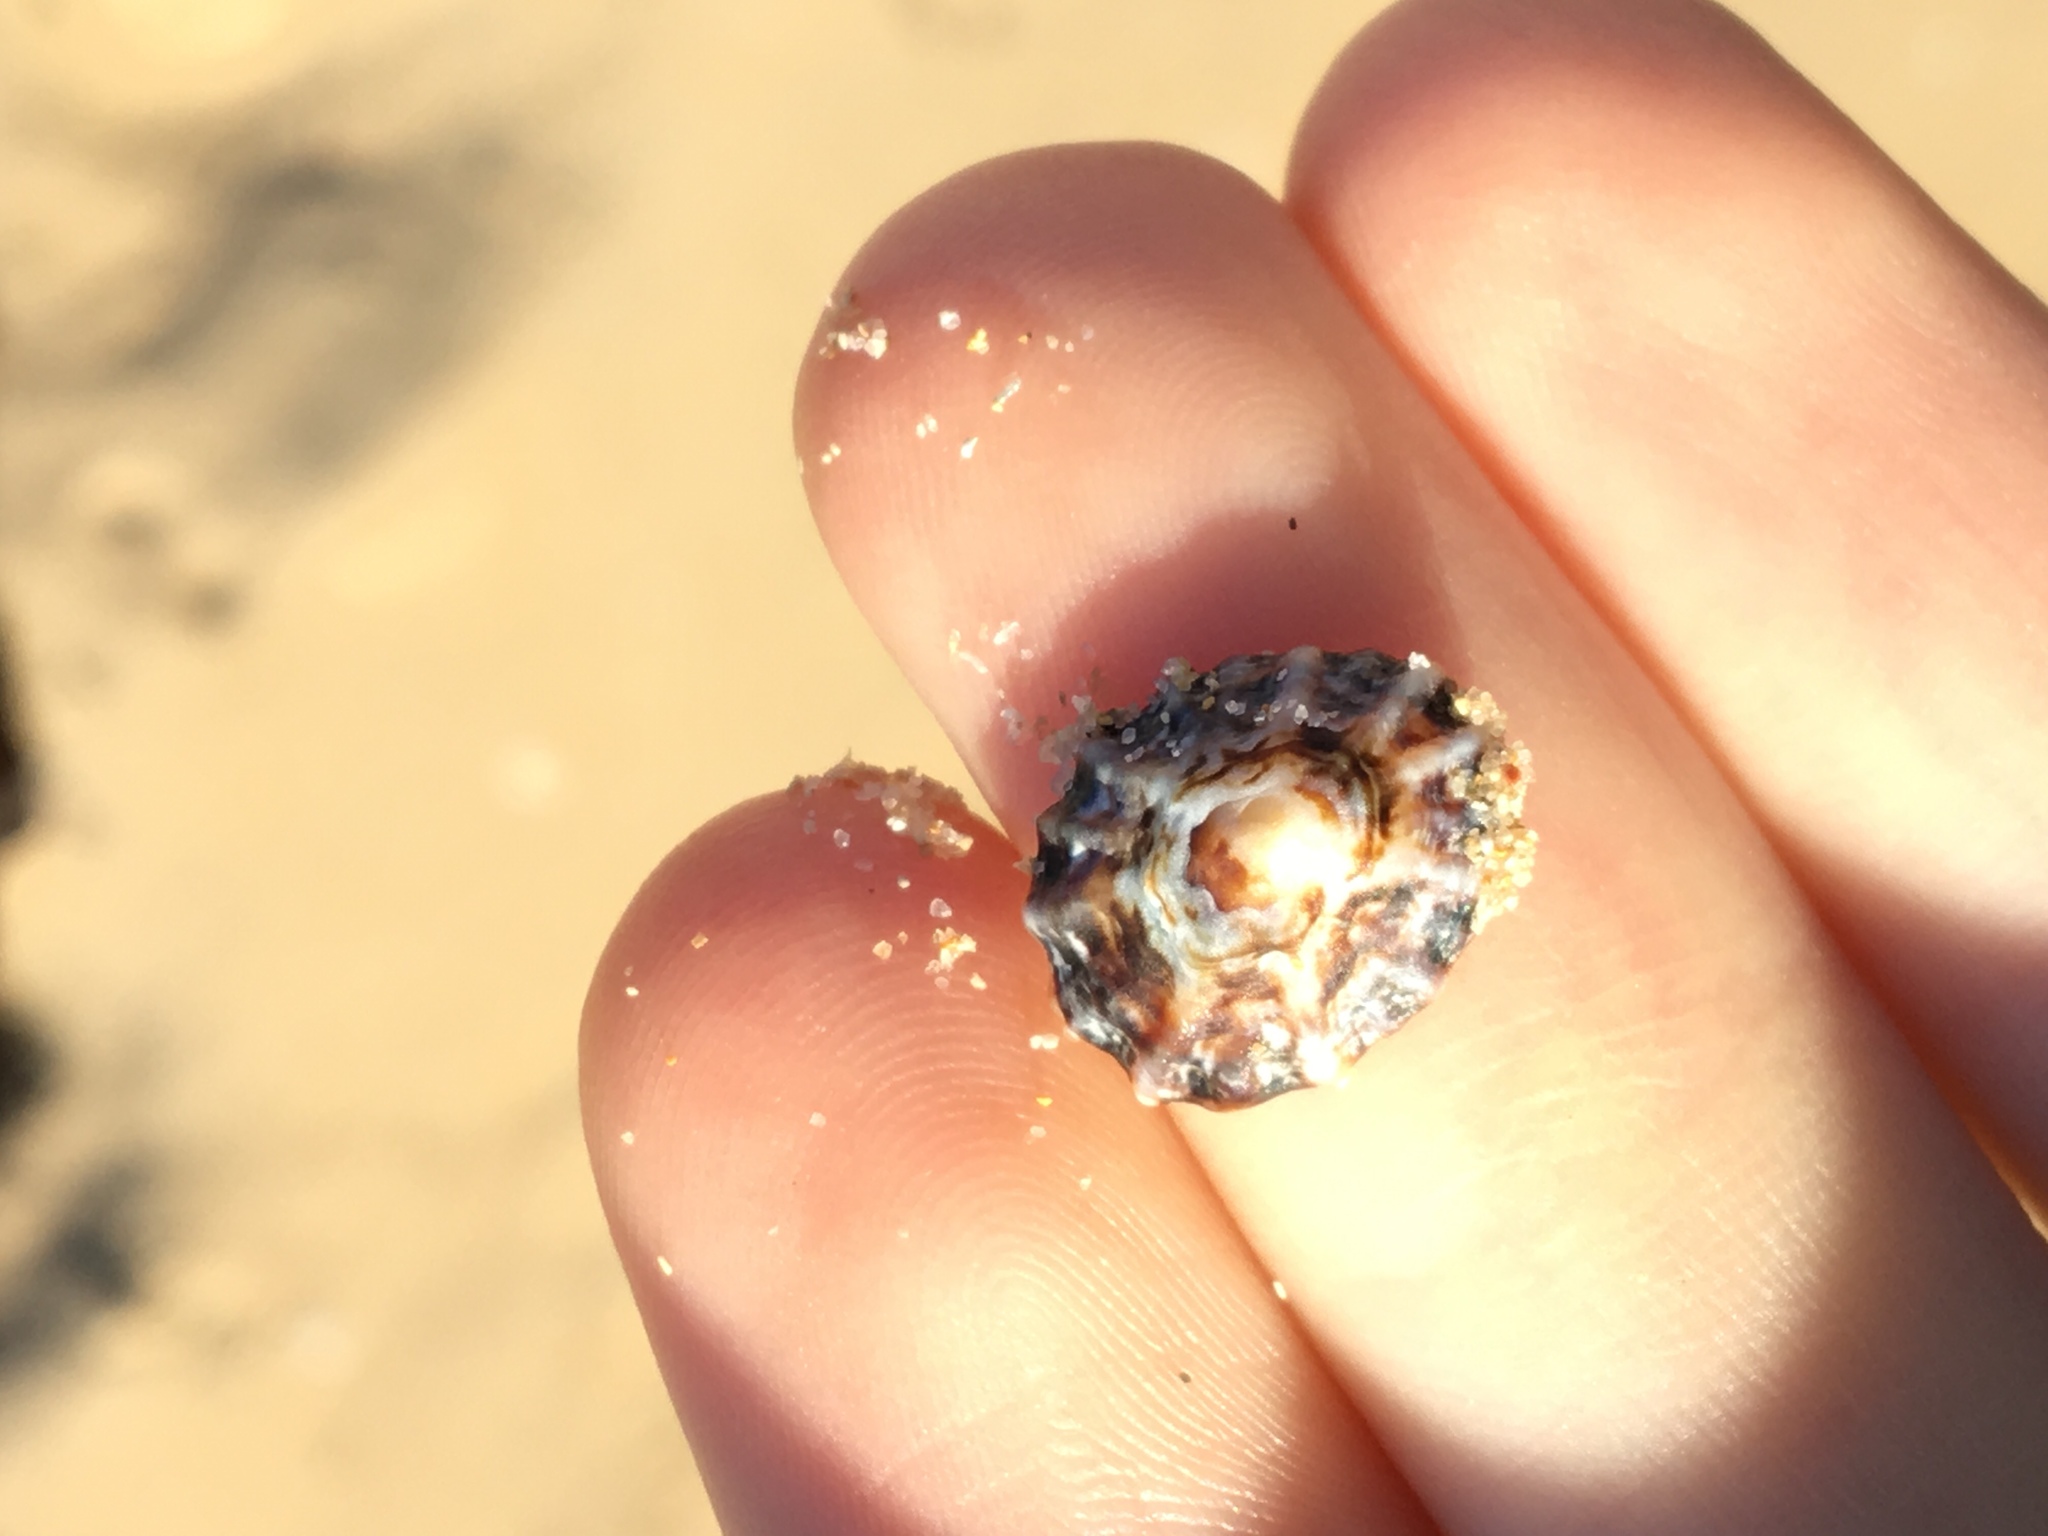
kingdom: Animalia
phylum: Mollusca
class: Gastropoda
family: Lottiidae
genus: Patelloida
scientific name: Patelloida alticostata
